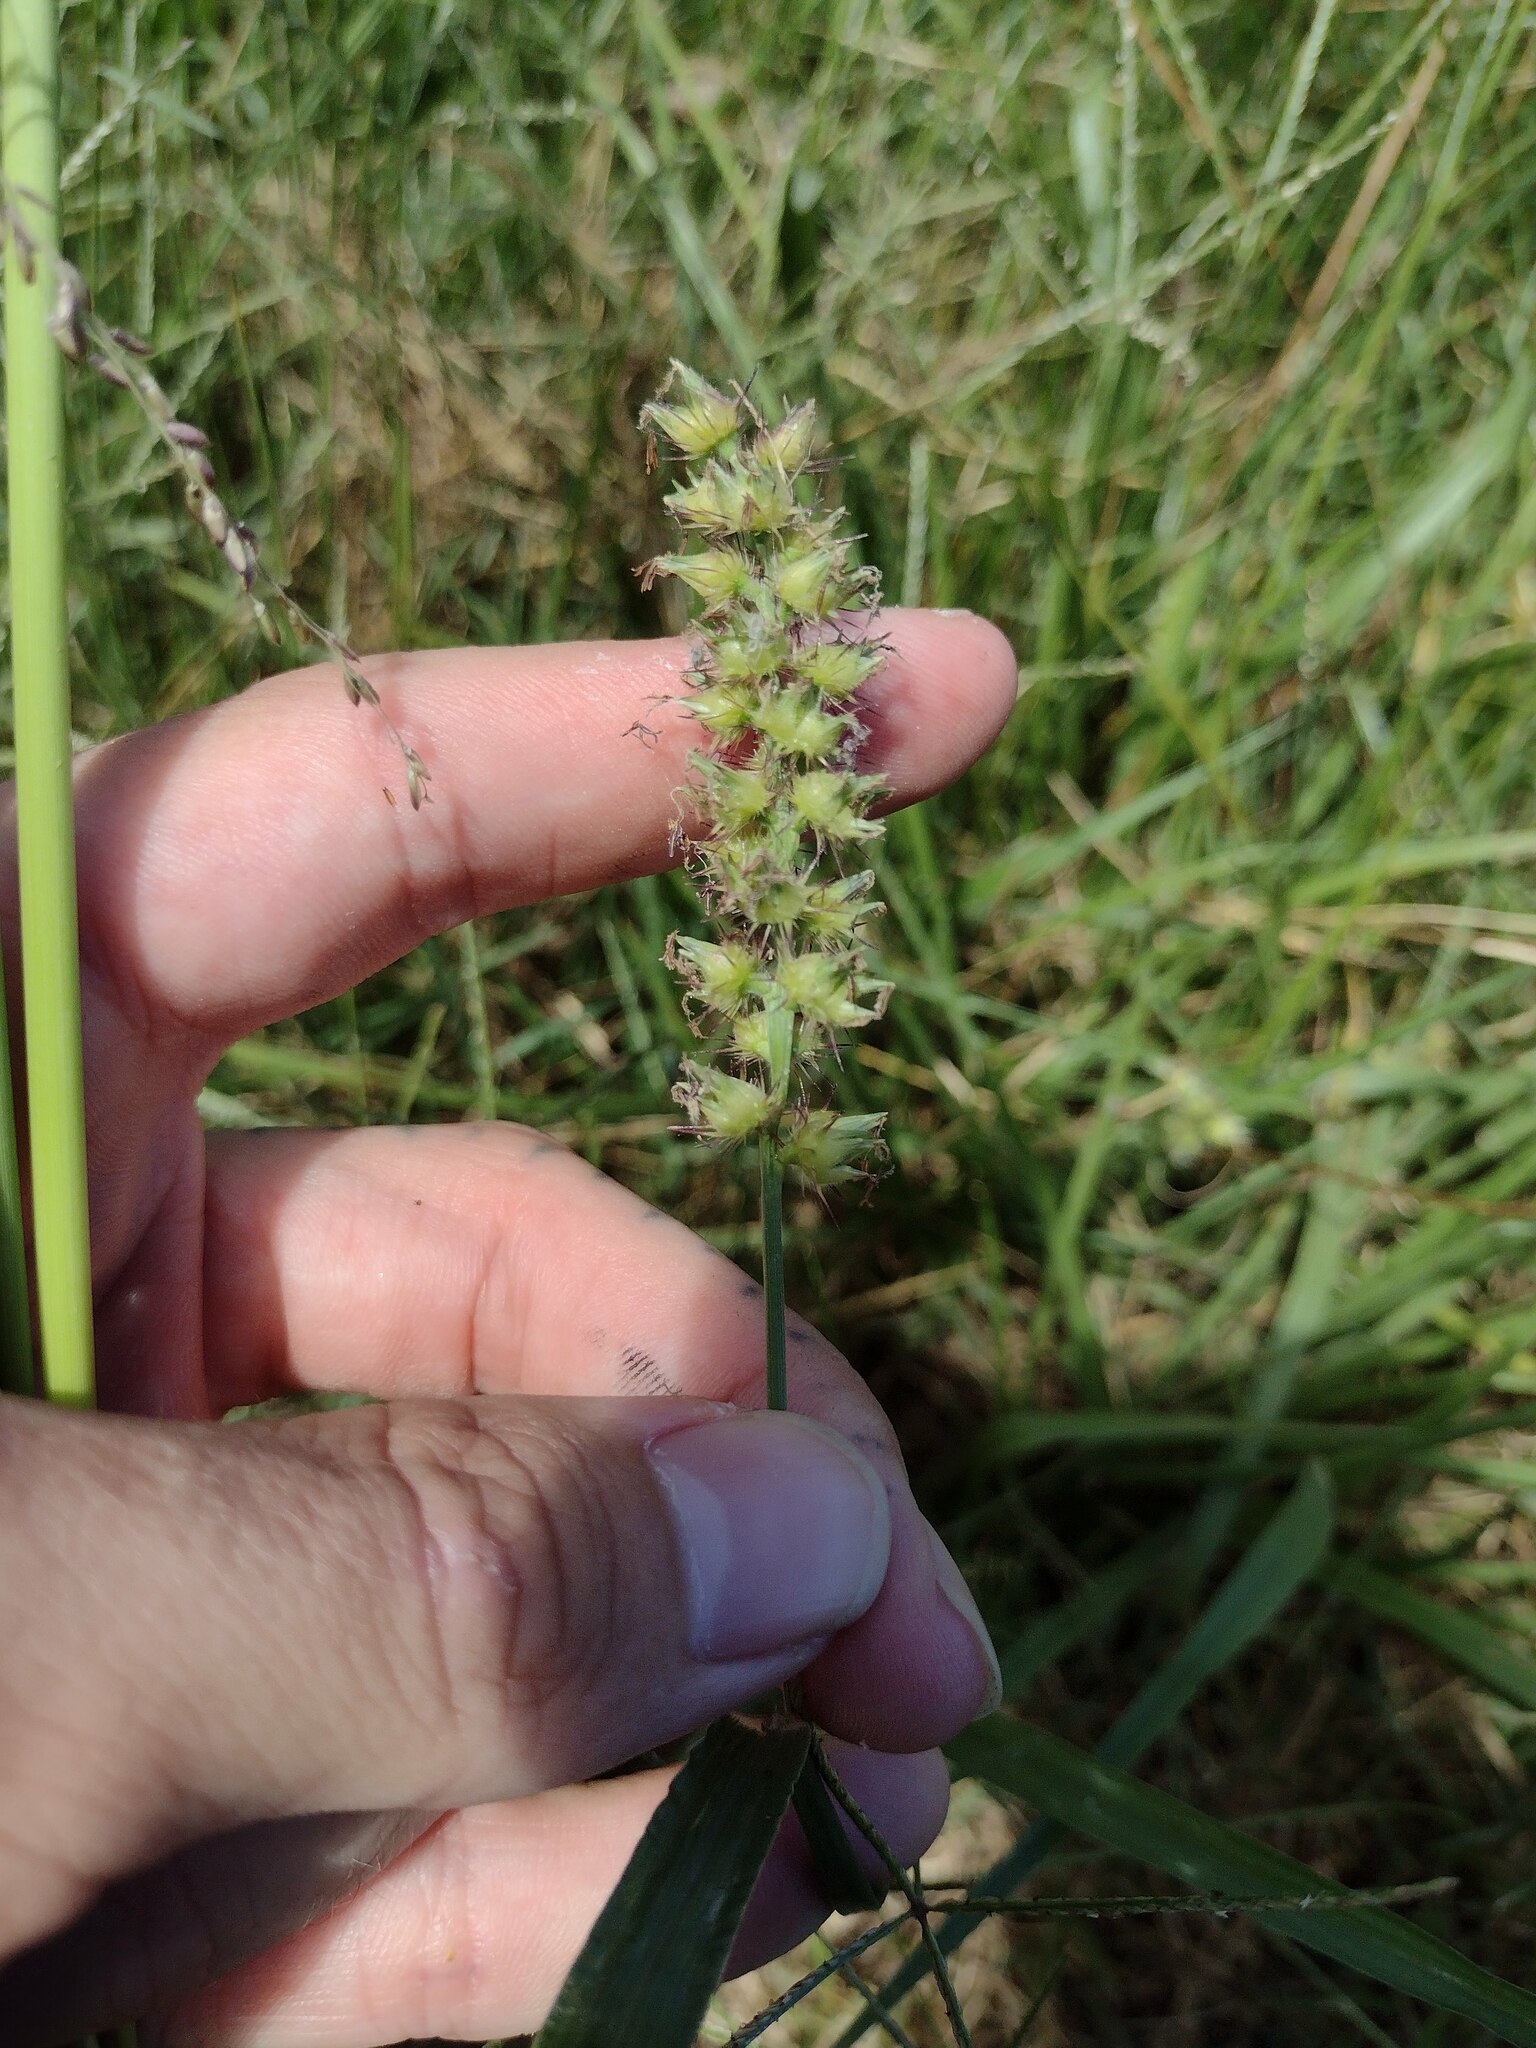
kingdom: Plantae
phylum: Tracheophyta
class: Liliopsida
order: Poales
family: Poaceae
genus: Cenchrus
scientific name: Cenchrus echinatus
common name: Southern sandbur
